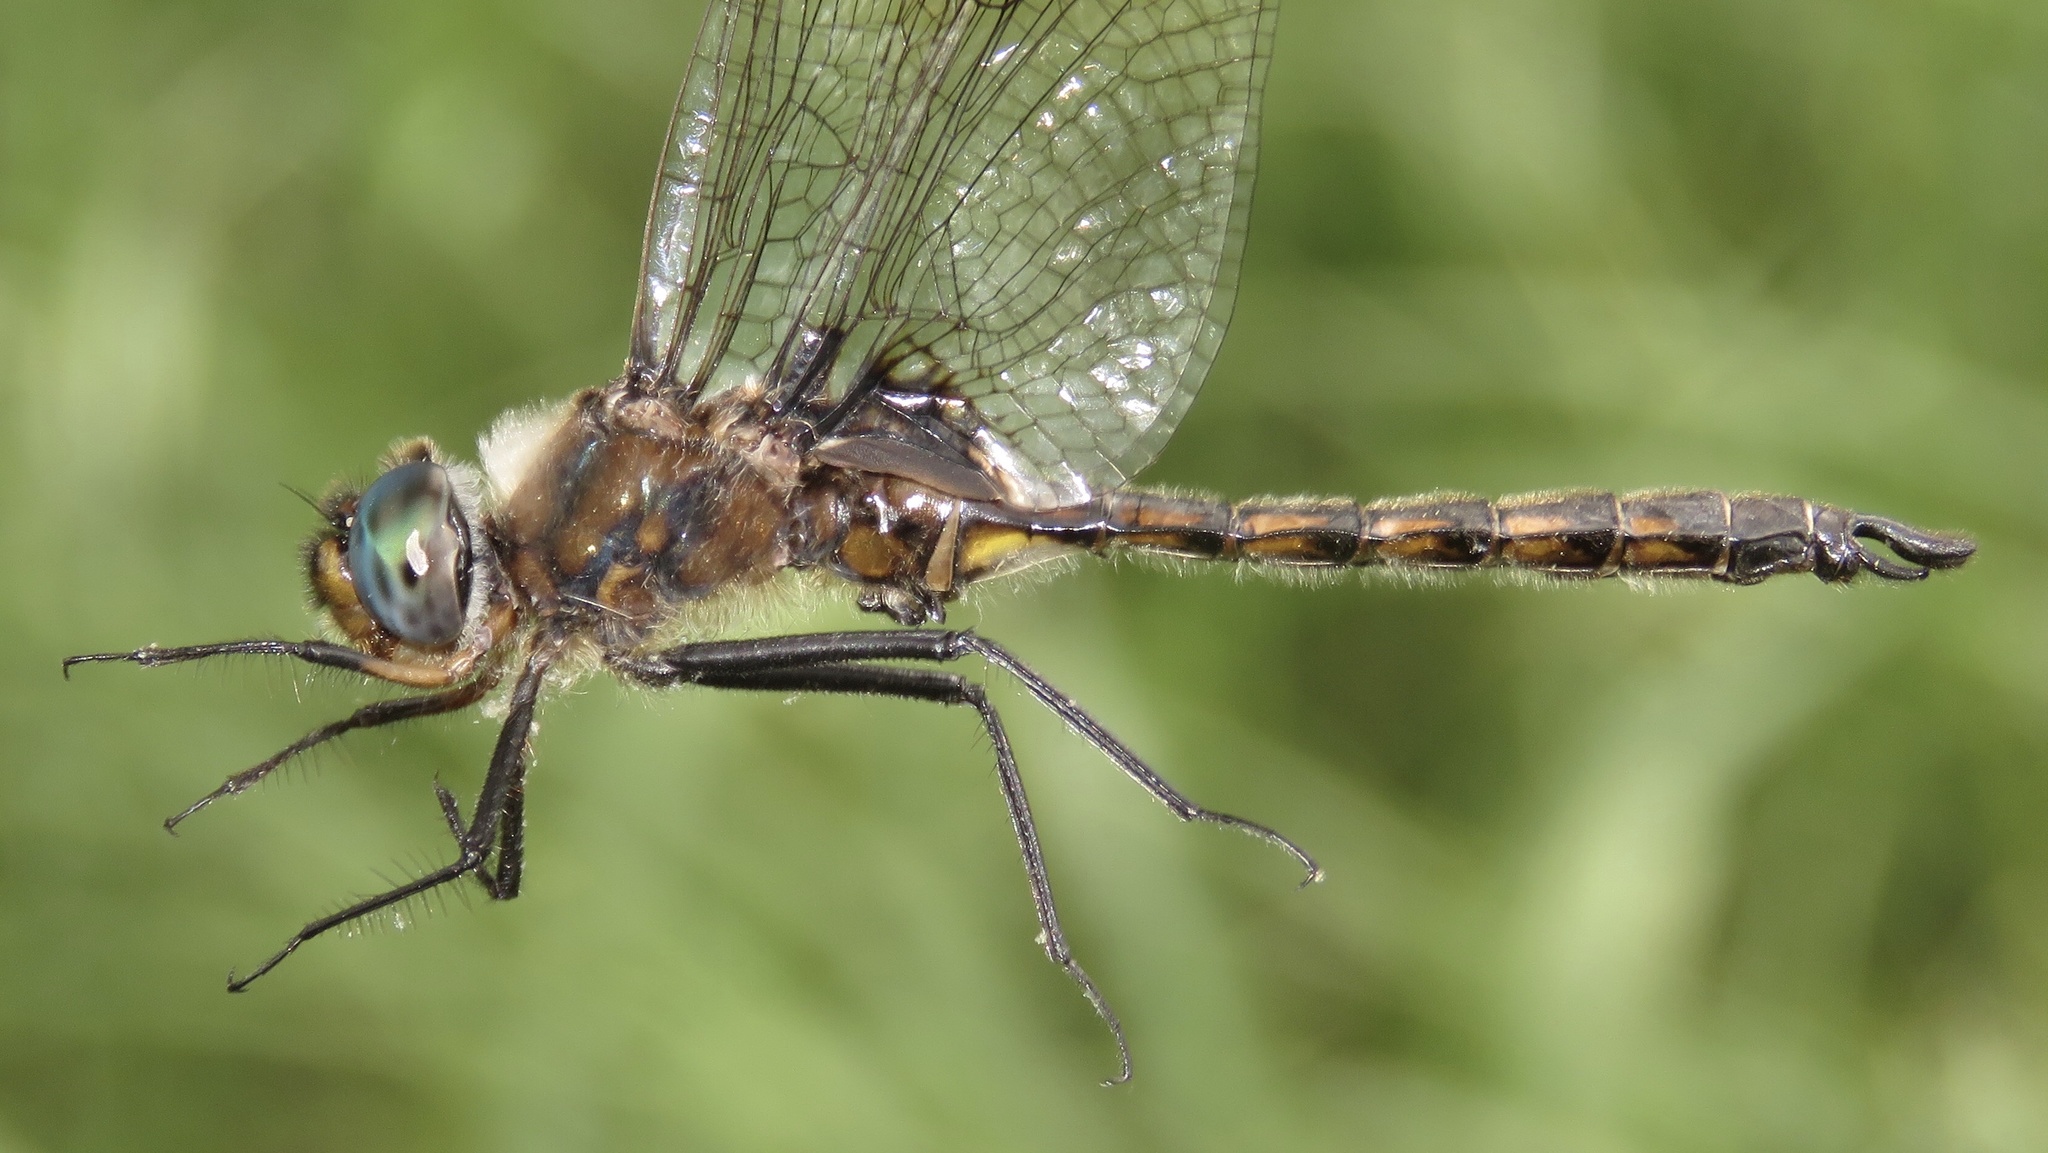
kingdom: Animalia
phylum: Arthropoda
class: Insecta
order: Odonata
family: Corduliidae
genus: Epitheca
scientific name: Epitheca spinigera
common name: Spiny baskettail
